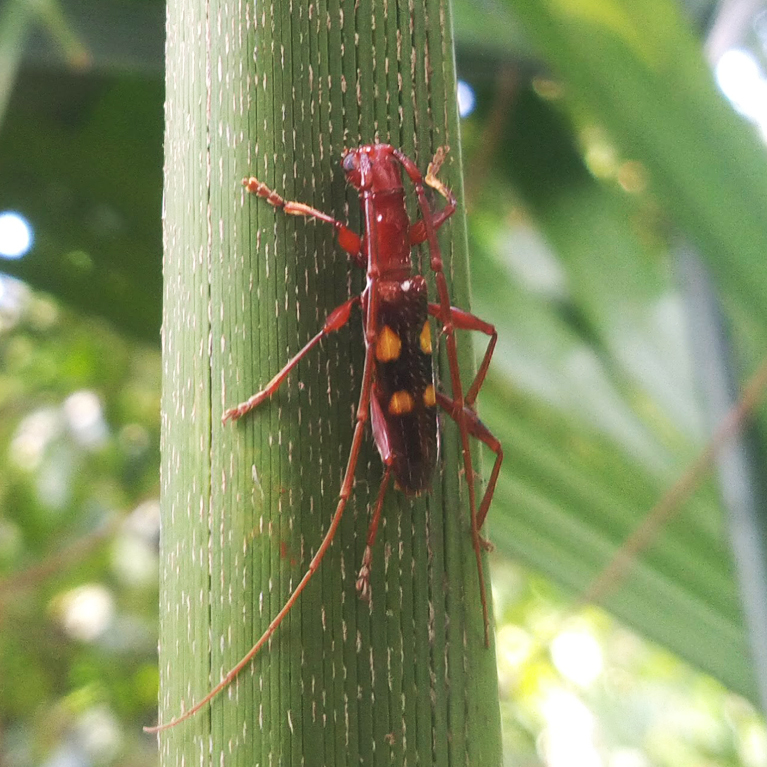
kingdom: Animalia
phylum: Arthropoda
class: Insecta
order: Coleoptera
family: Cerambycidae
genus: Asynapteron
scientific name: Asynapteron glabriolum
